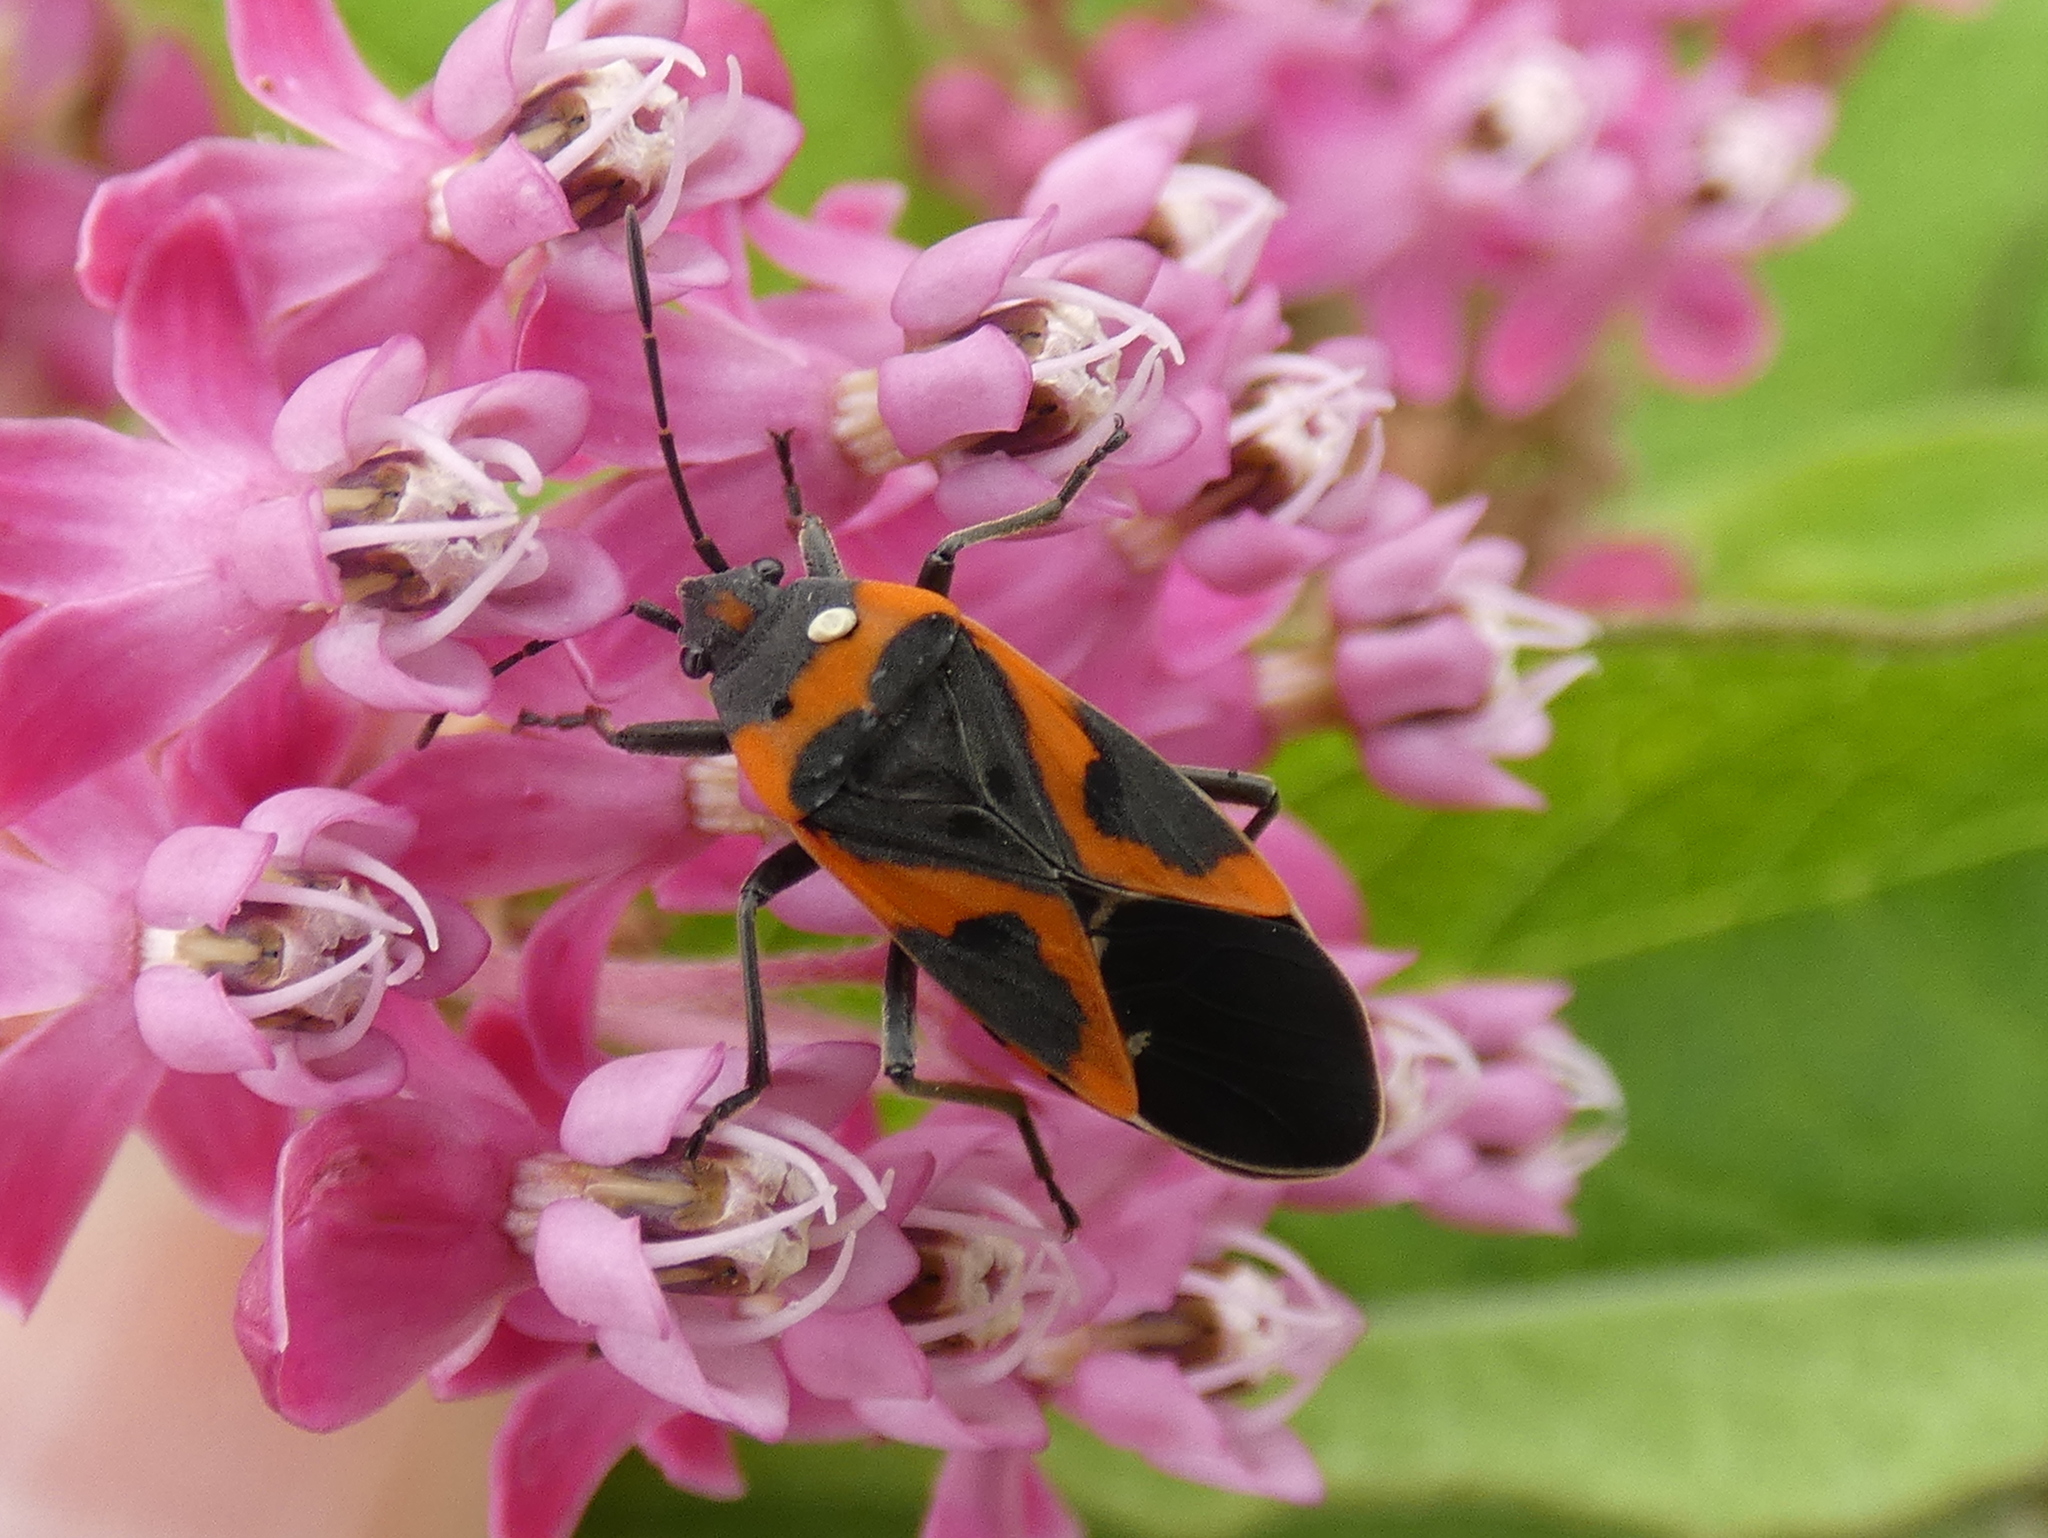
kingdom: Animalia
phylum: Arthropoda
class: Insecta
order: Hemiptera
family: Lygaeidae
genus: Lygaeus
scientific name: Lygaeus kalmii
